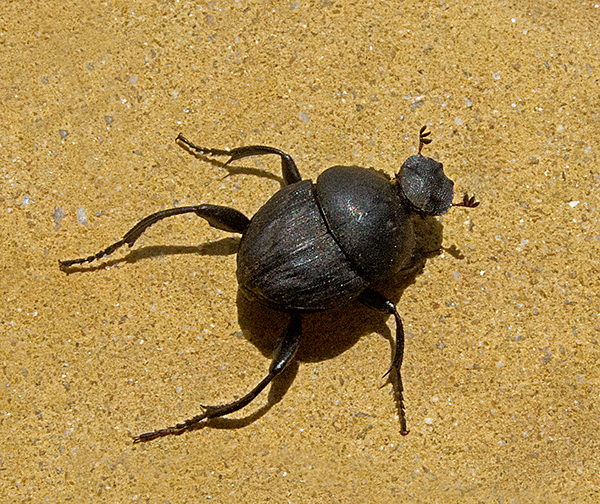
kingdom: Animalia
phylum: Arthropoda
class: Insecta
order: Coleoptera
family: Scarabaeidae
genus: Sisyphus
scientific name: Sisyphus schaefferi
